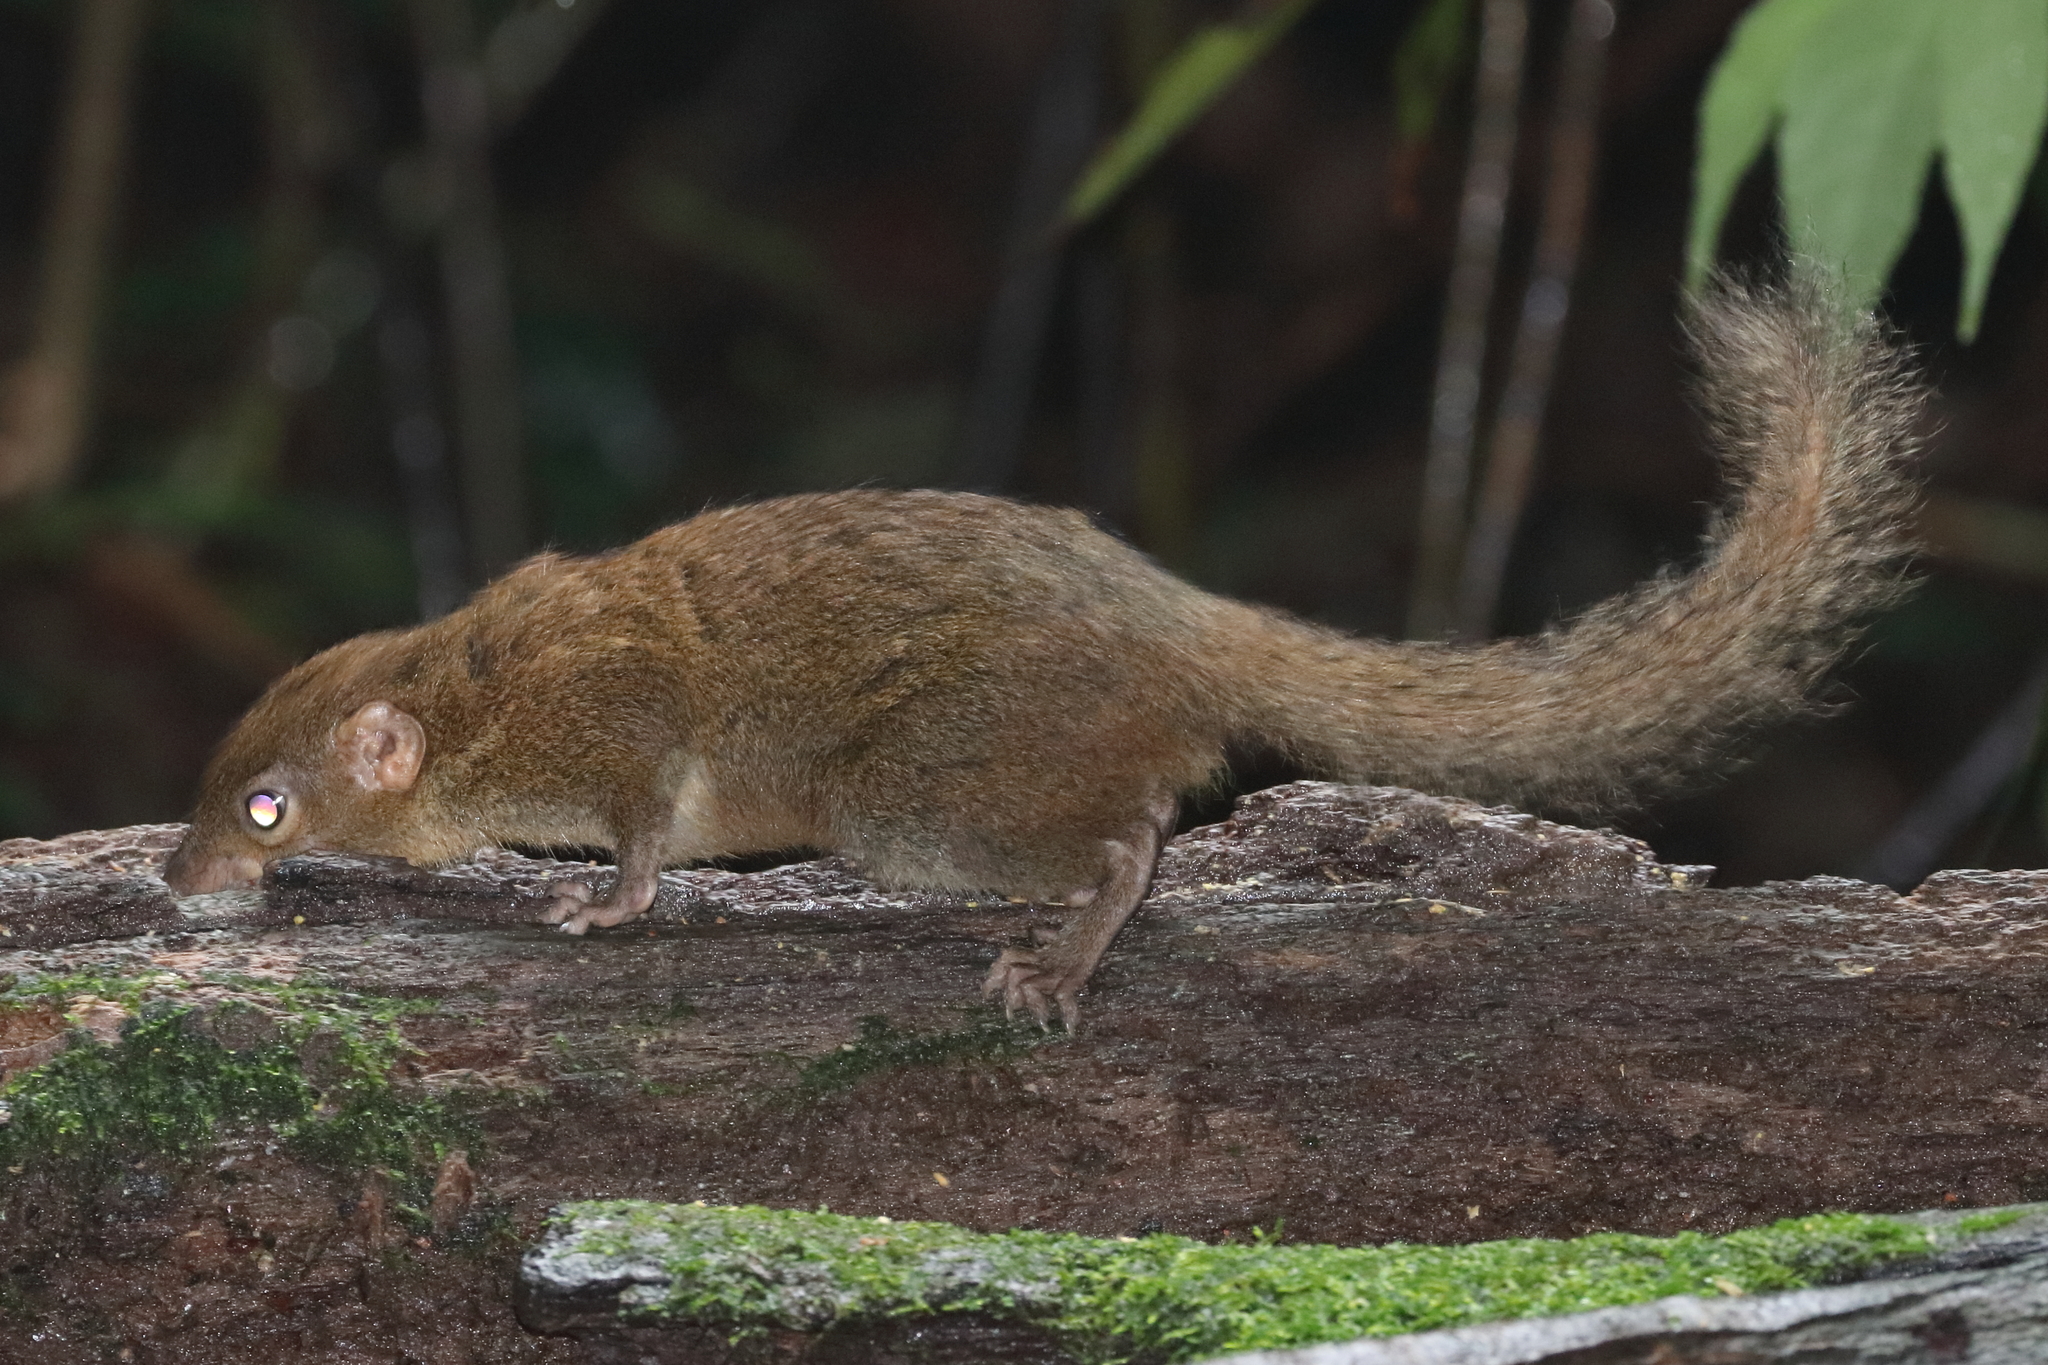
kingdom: Animalia
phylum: Chordata
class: Mammalia
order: Scandentia
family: Tupaiidae
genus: Tupaia
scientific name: Tupaia belangeri
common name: Northern treeshrew
